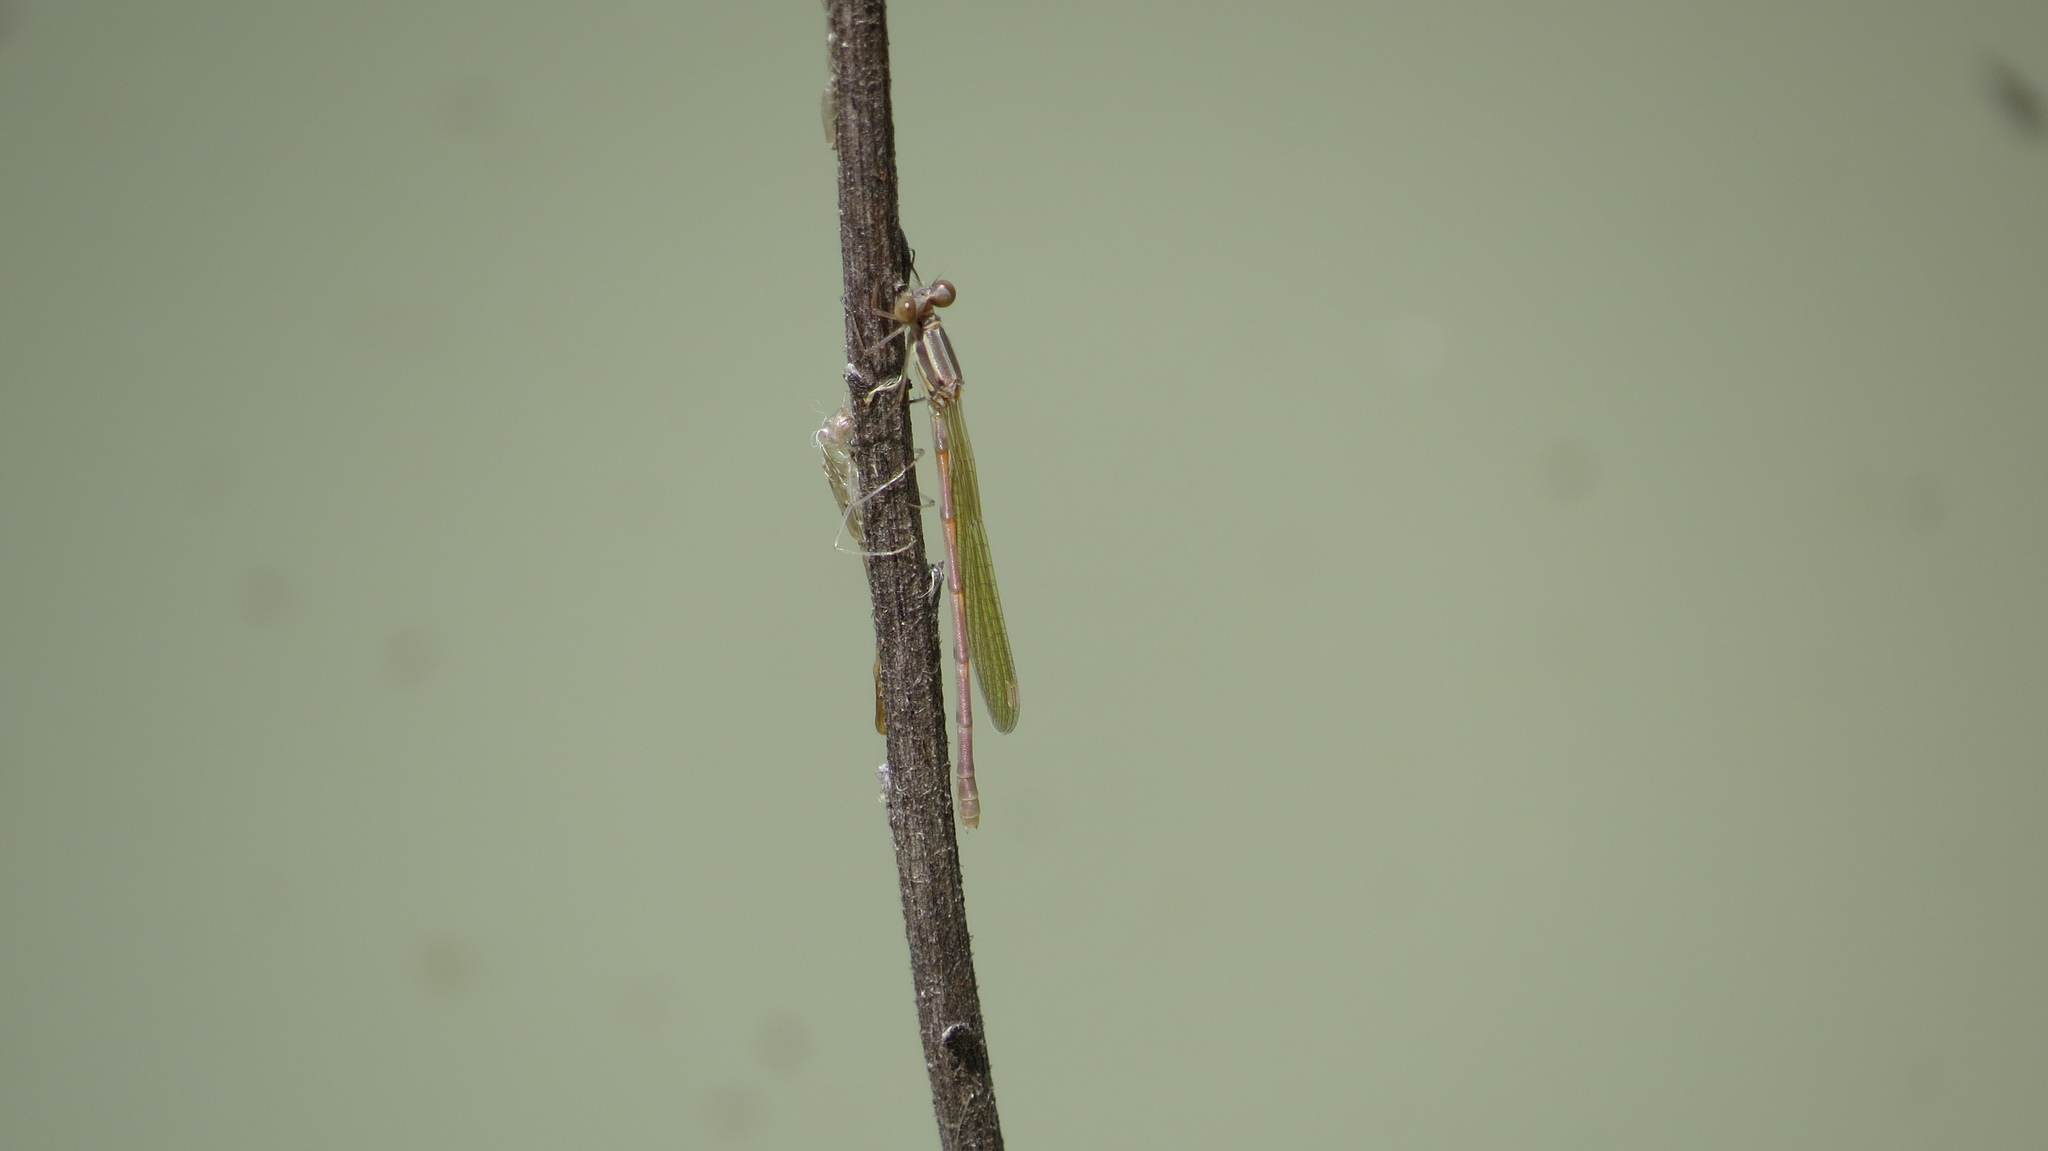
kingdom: Animalia
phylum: Arthropoda
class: Insecta
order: Odonata
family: Lestidae
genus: Austrolestes
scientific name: Austrolestes leda
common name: Wandering ringtail
